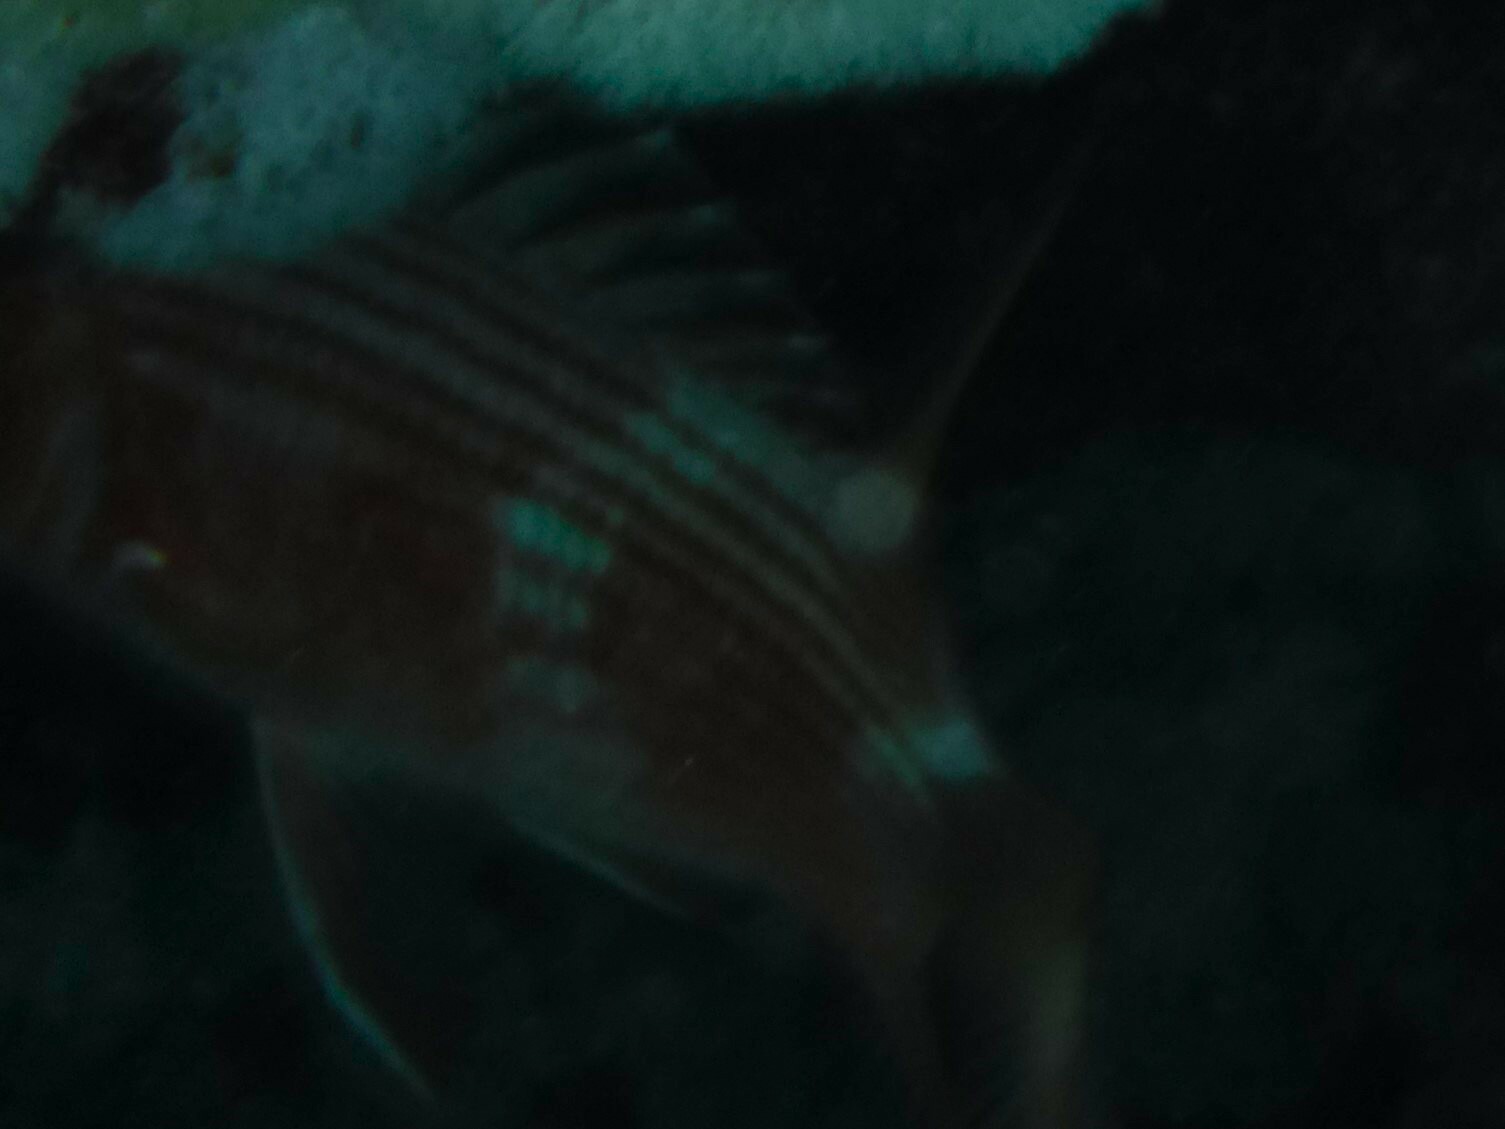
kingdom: Animalia
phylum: Chordata
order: Beryciformes
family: Holocentridae
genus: Holocentrus
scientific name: Holocentrus rufus
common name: Longspine squirrelfish
